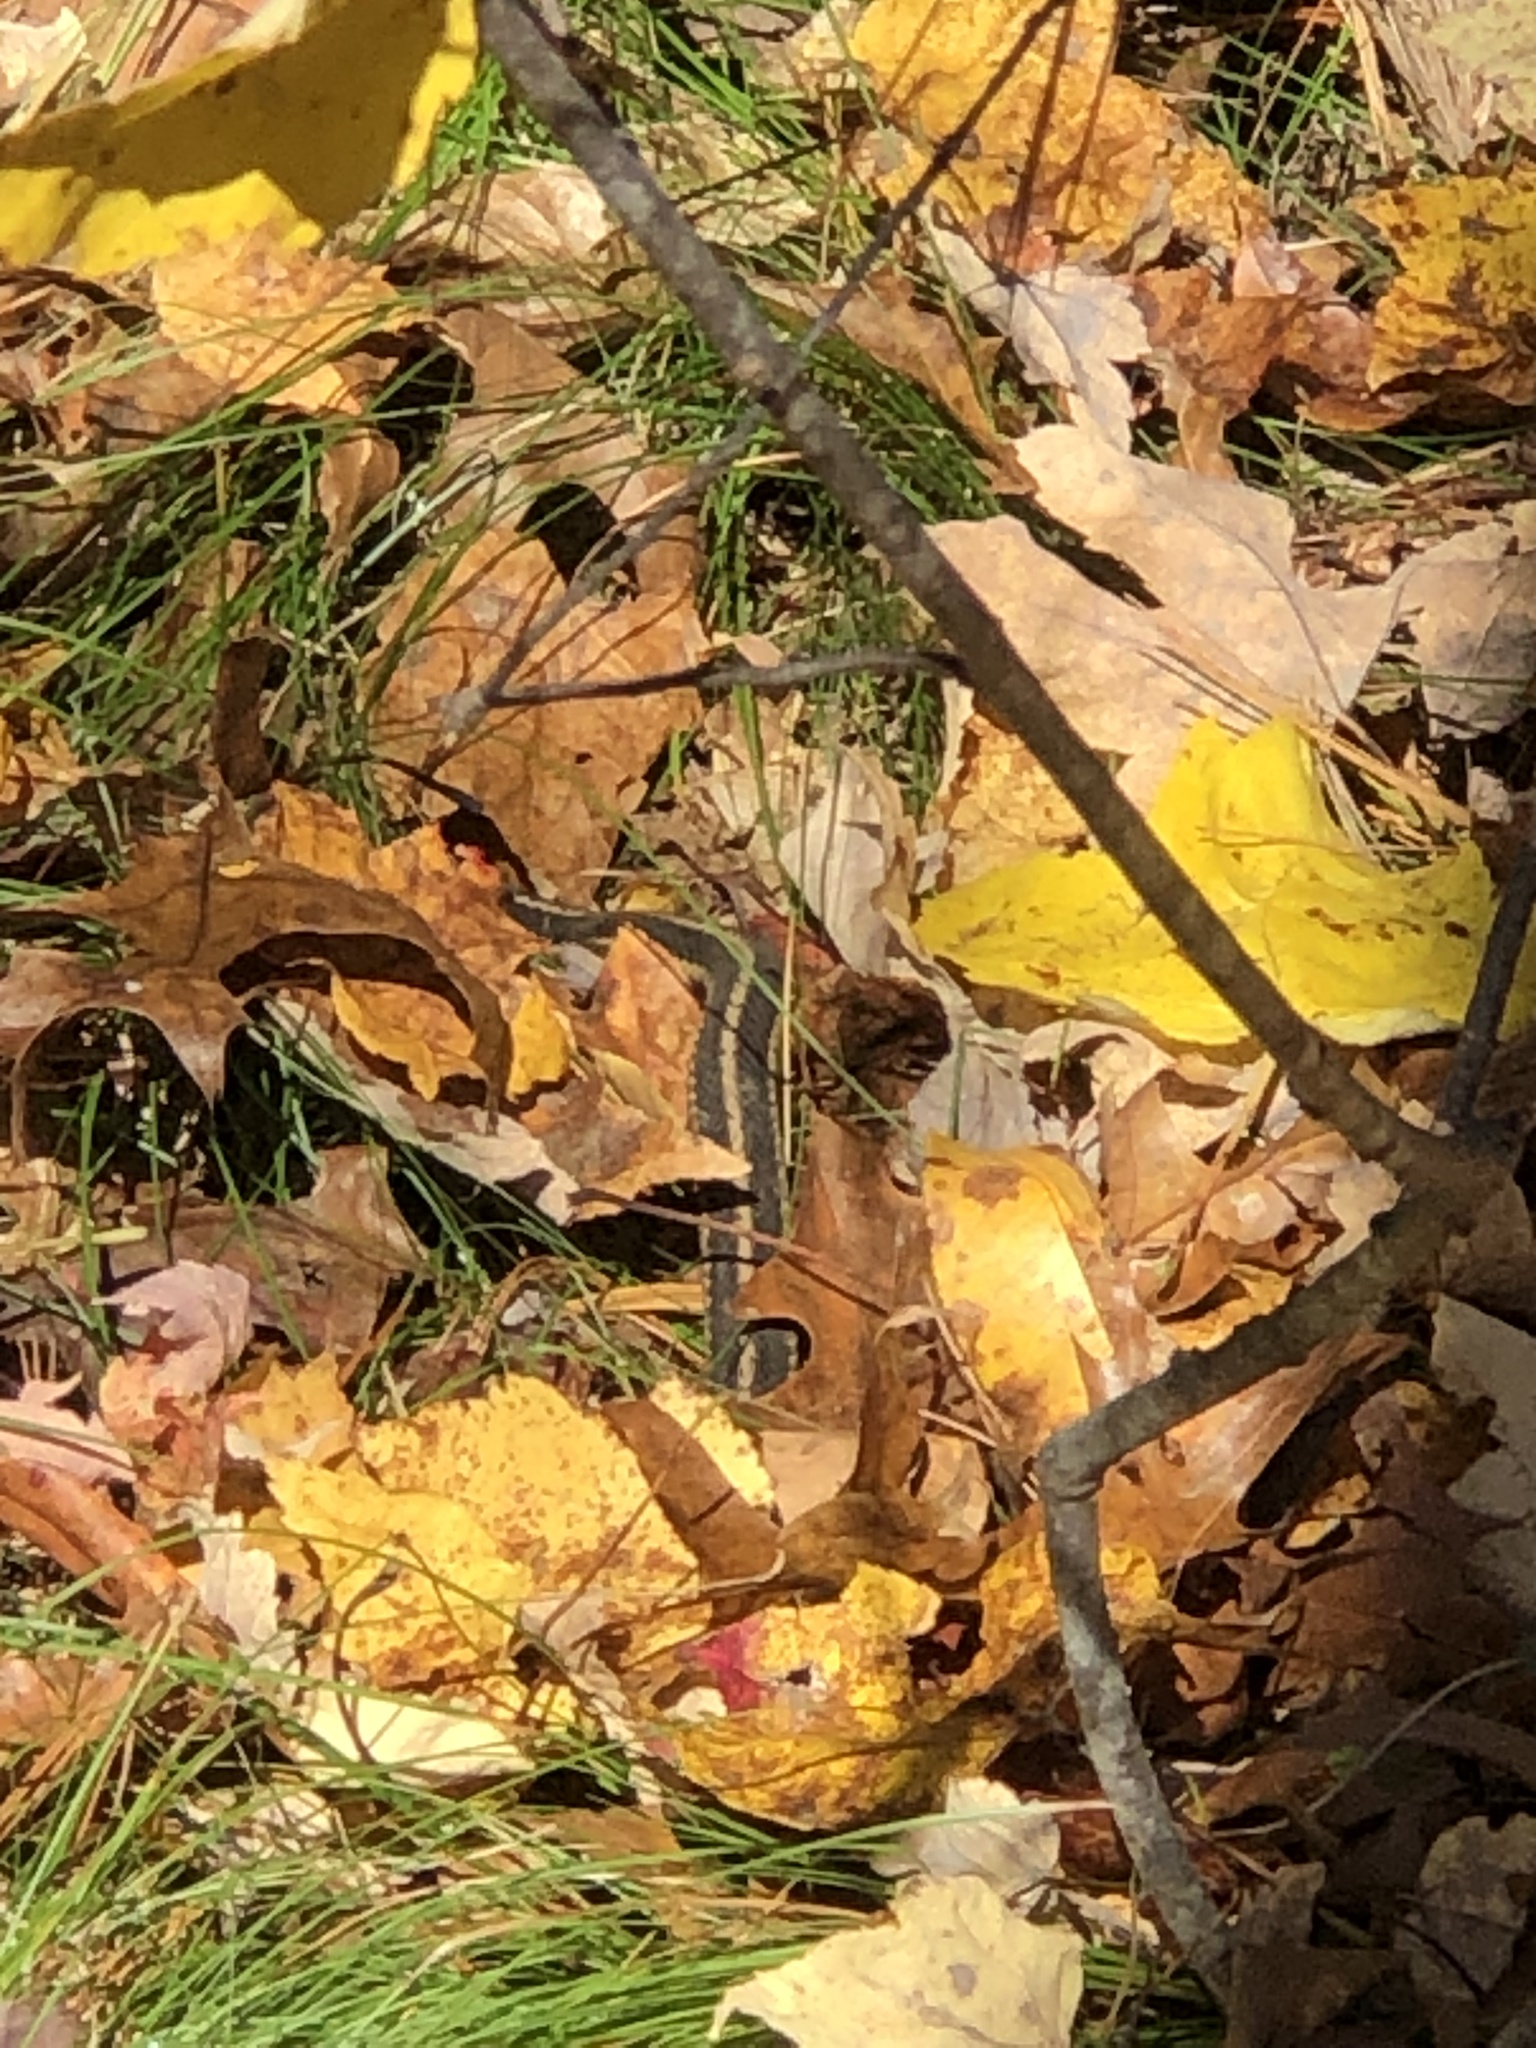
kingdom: Animalia
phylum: Chordata
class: Squamata
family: Colubridae
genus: Thamnophis
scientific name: Thamnophis sirtalis
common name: Common garter snake
